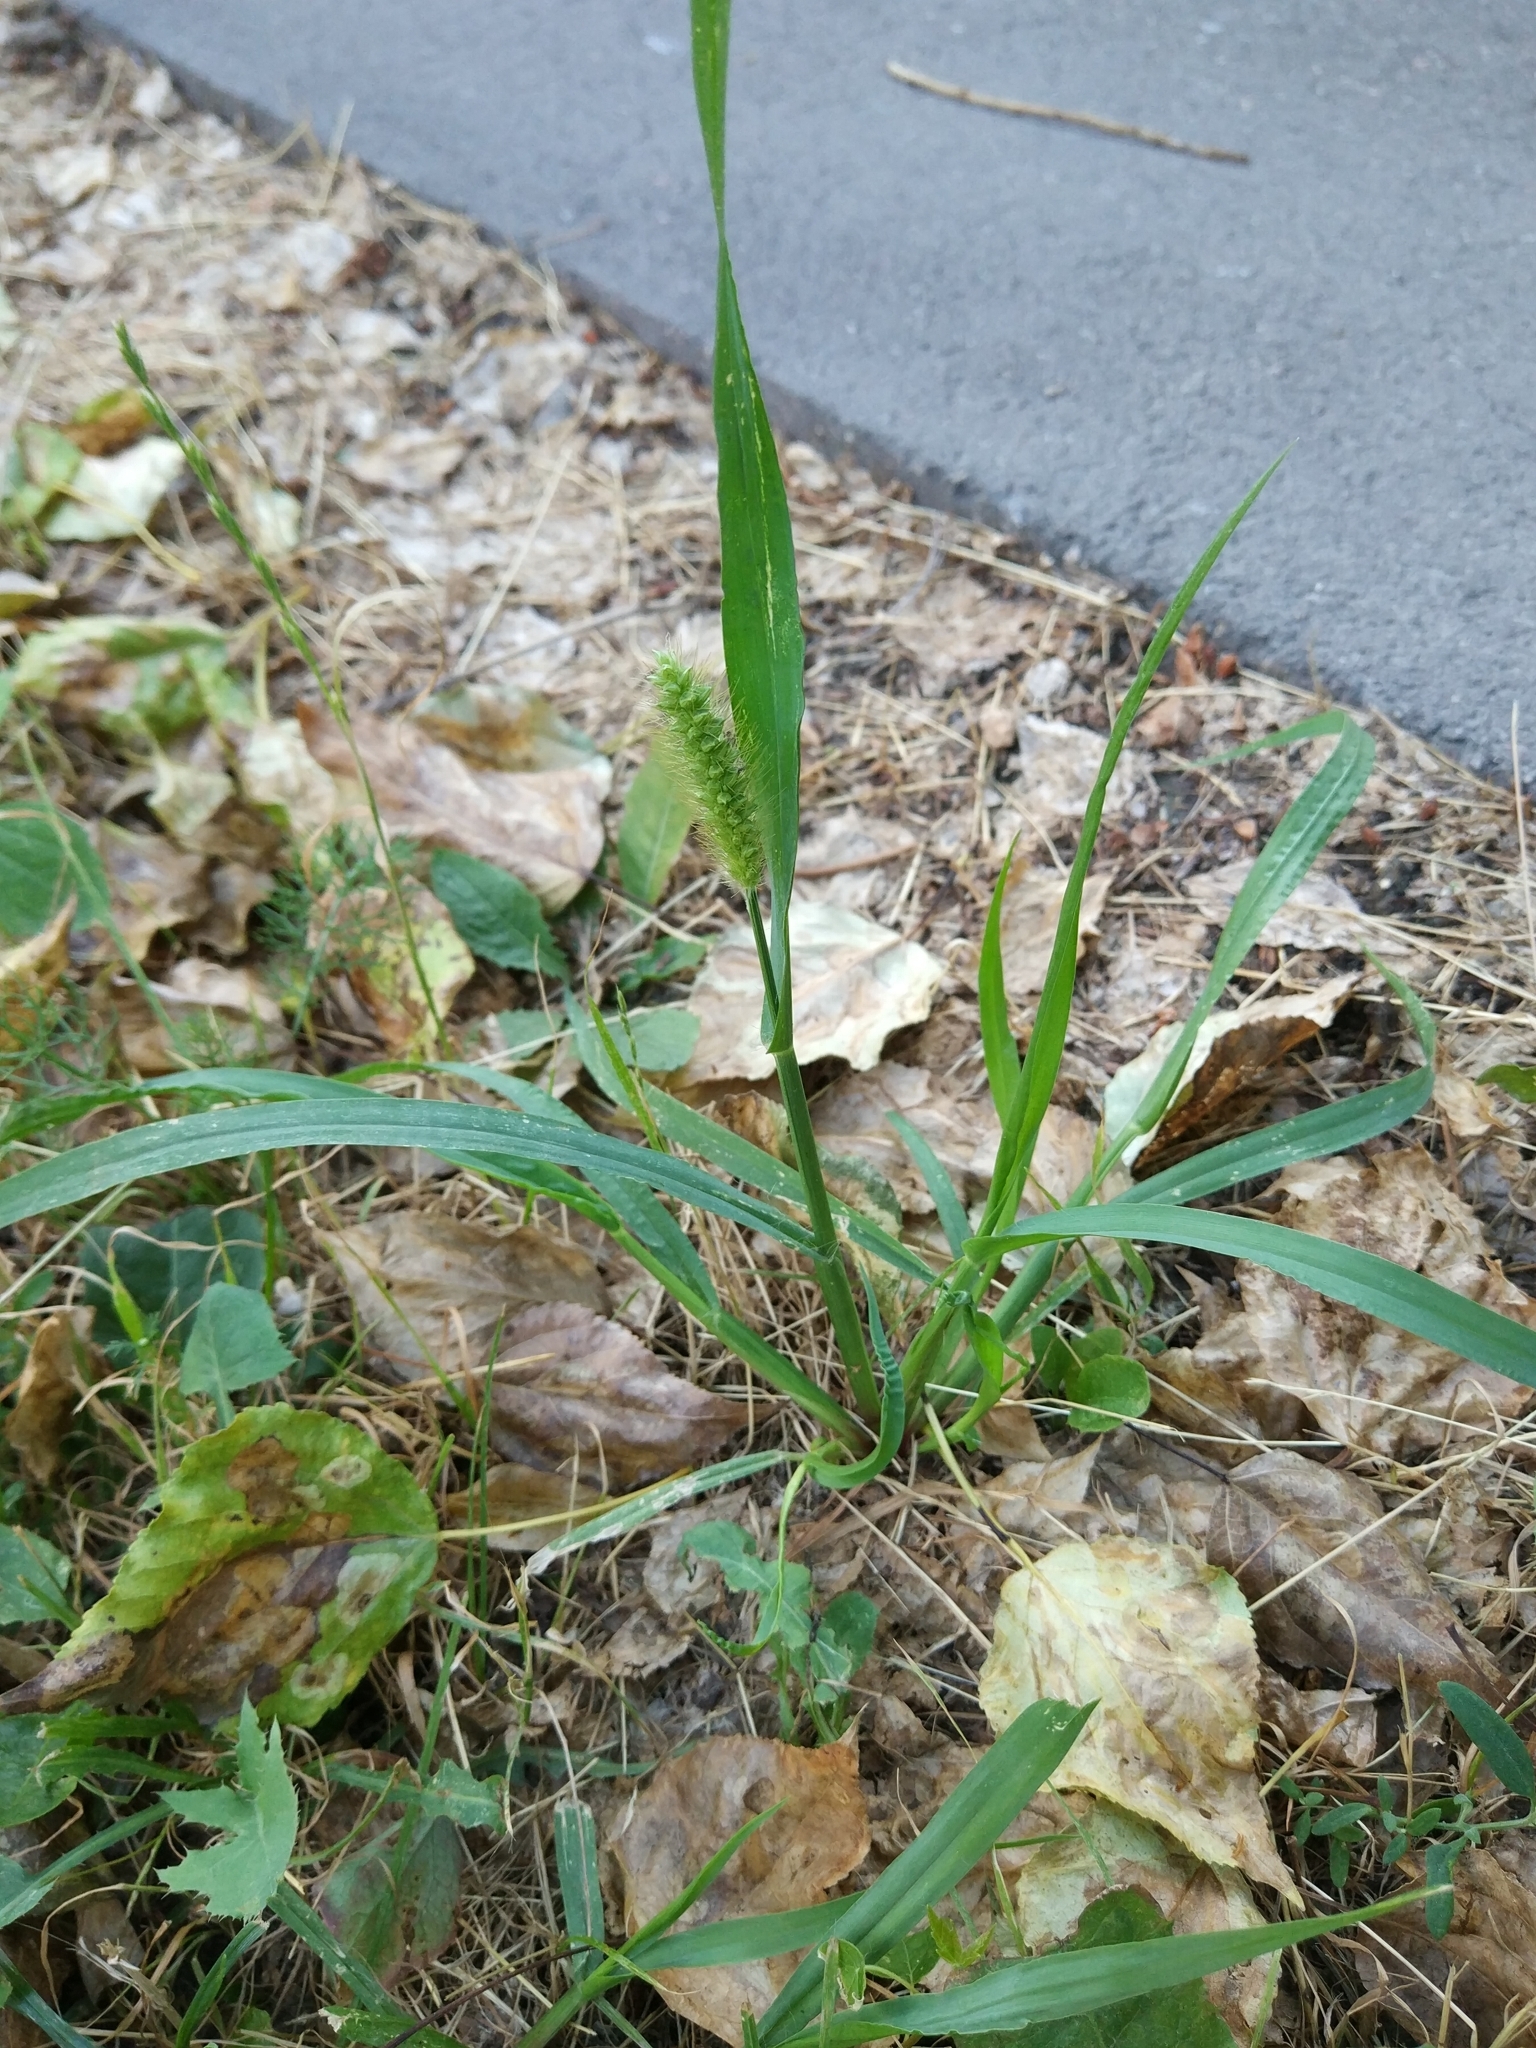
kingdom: Plantae
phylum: Tracheophyta
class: Liliopsida
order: Poales
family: Poaceae
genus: Setaria
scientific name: Setaria pumila
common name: Yellow bristle-grass
